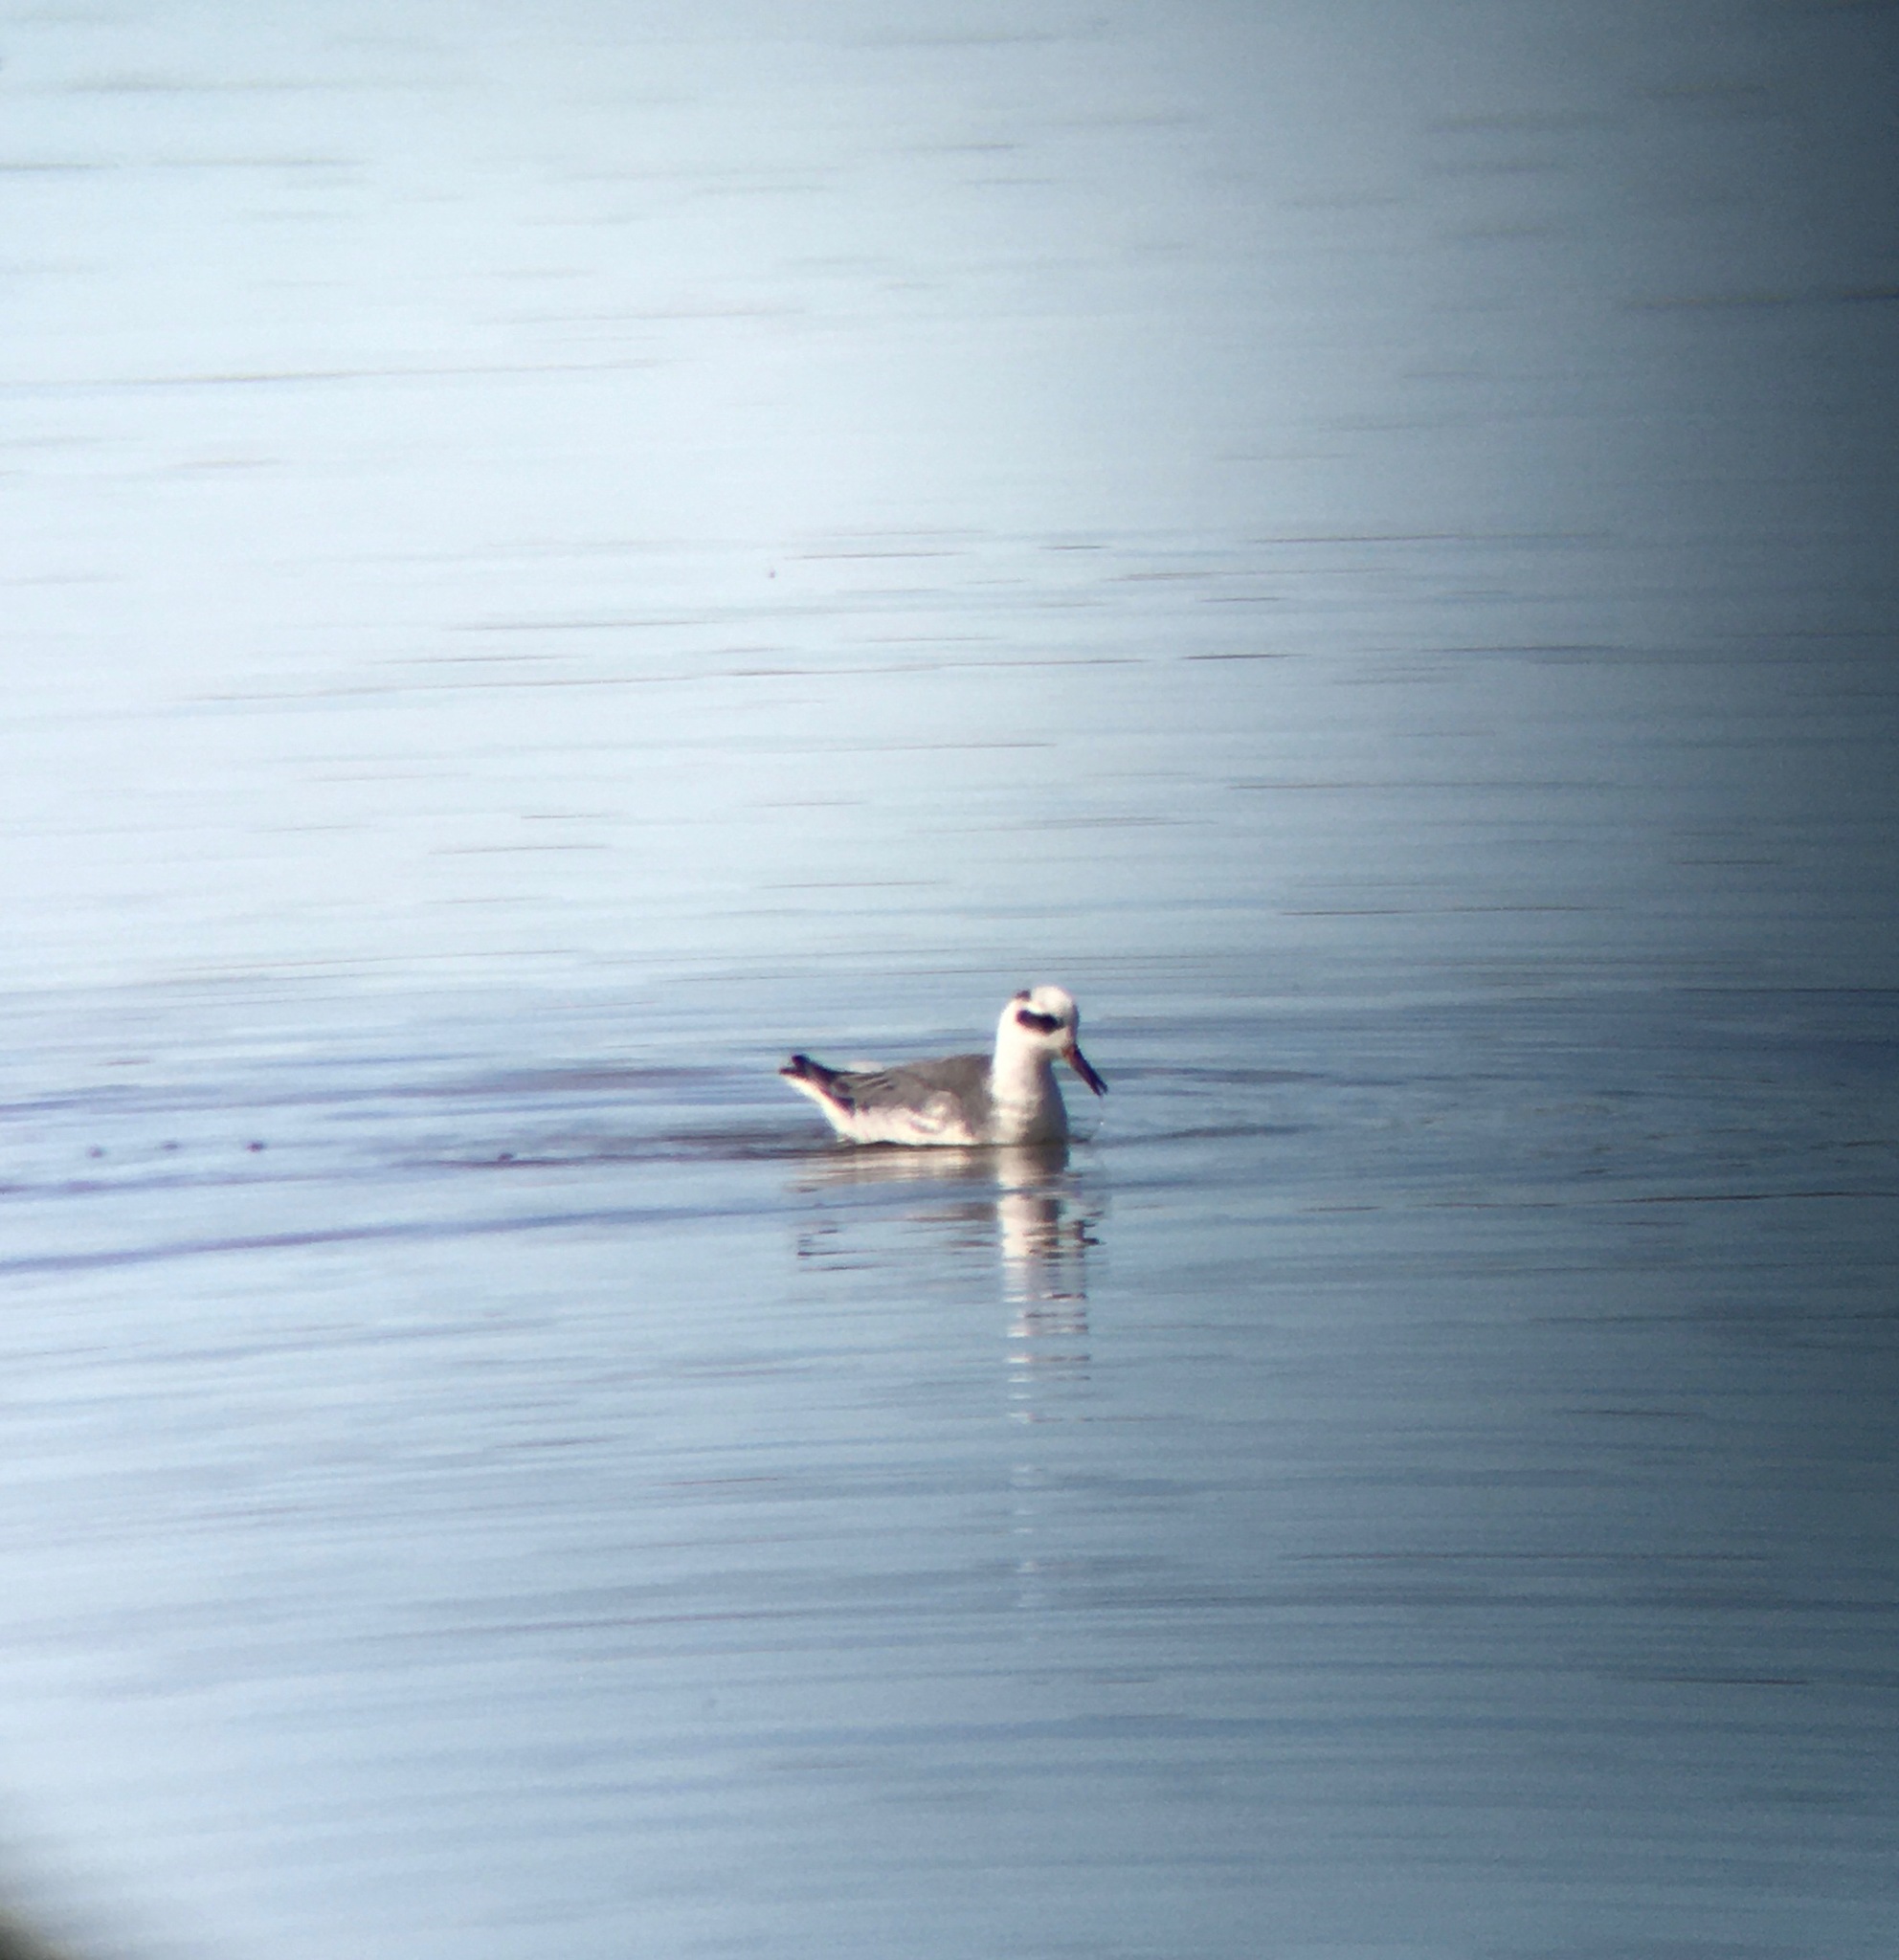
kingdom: Animalia
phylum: Chordata
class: Aves
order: Charadriiformes
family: Scolopacidae
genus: Phalaropus
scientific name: Phalaropus fulicarius
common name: Red phalarope
